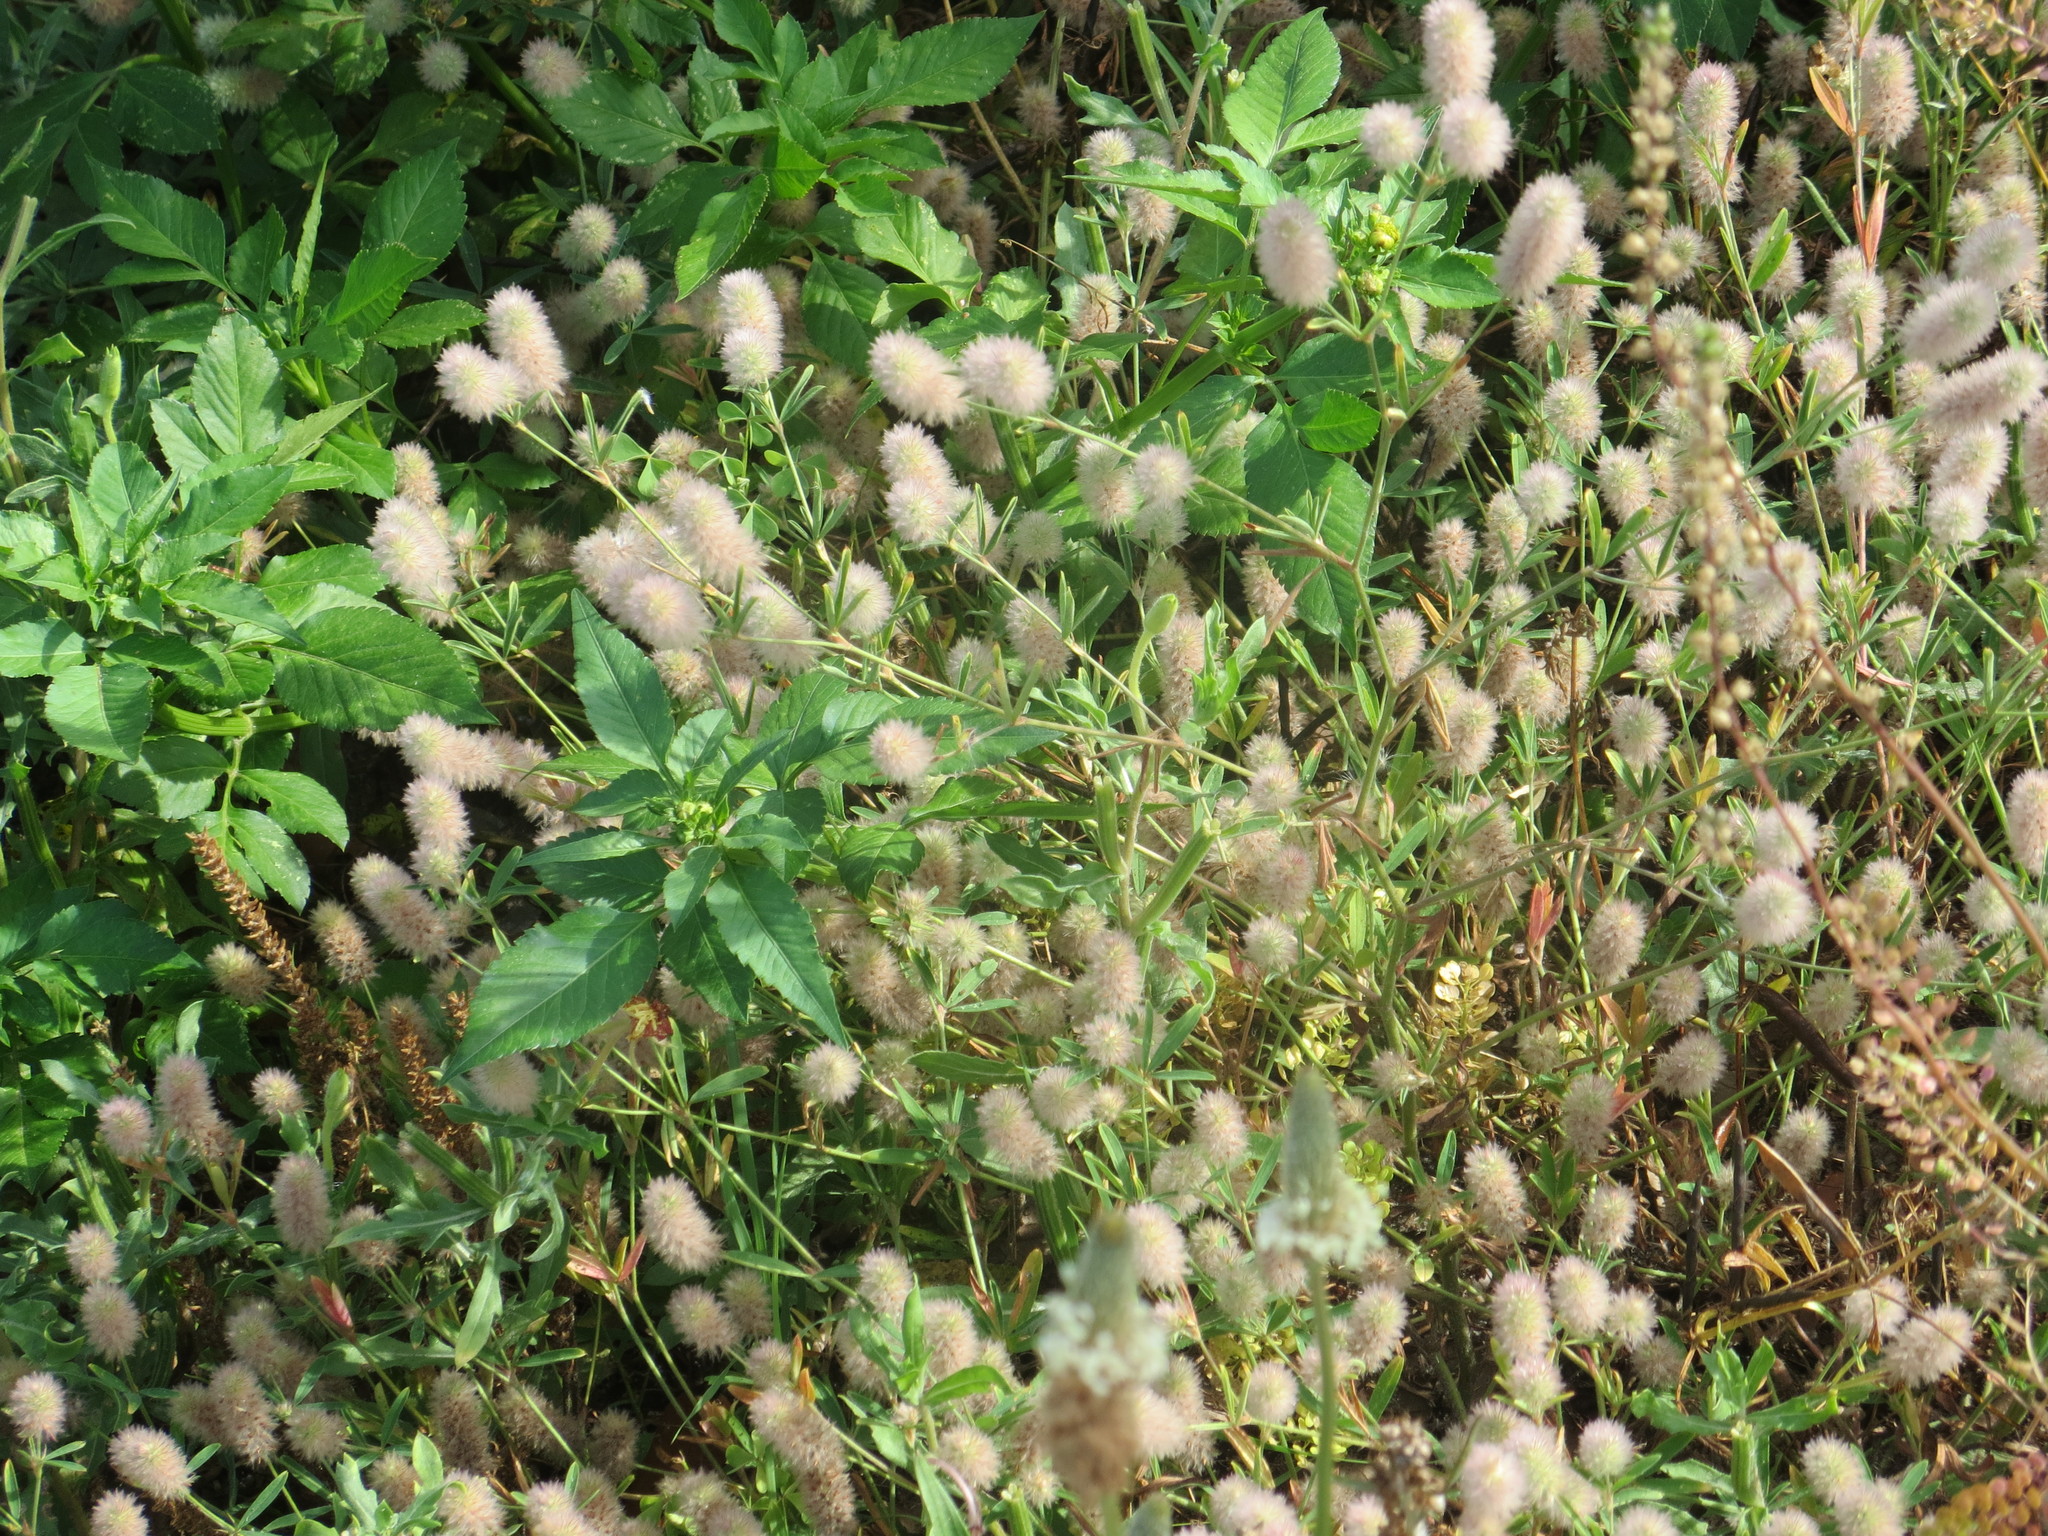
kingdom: Plantae
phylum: Tracheophyta
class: Magnoliopsida
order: Fabales
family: Fabaceae
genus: Trifolium
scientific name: Trifolium arvense
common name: Hare's-foot clover
